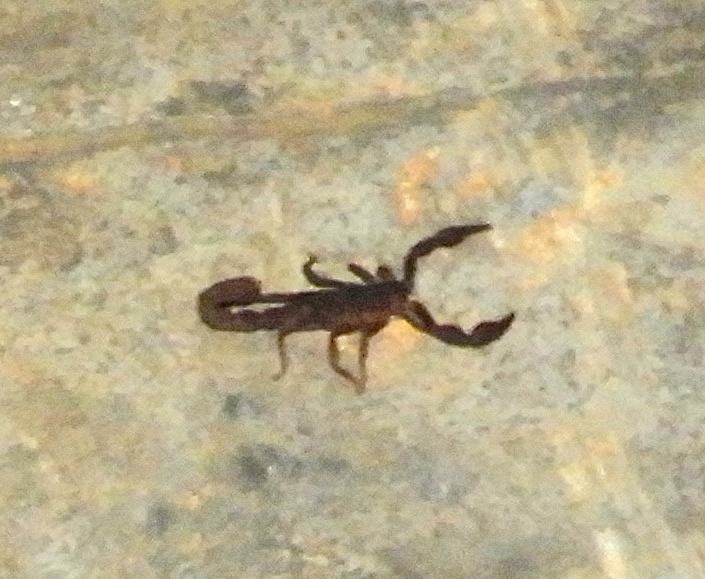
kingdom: Animalia
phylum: Arthropoda
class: Arachnida
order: Scorpiones
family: Vaejovidae
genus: Thorellius
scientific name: Thorellius
